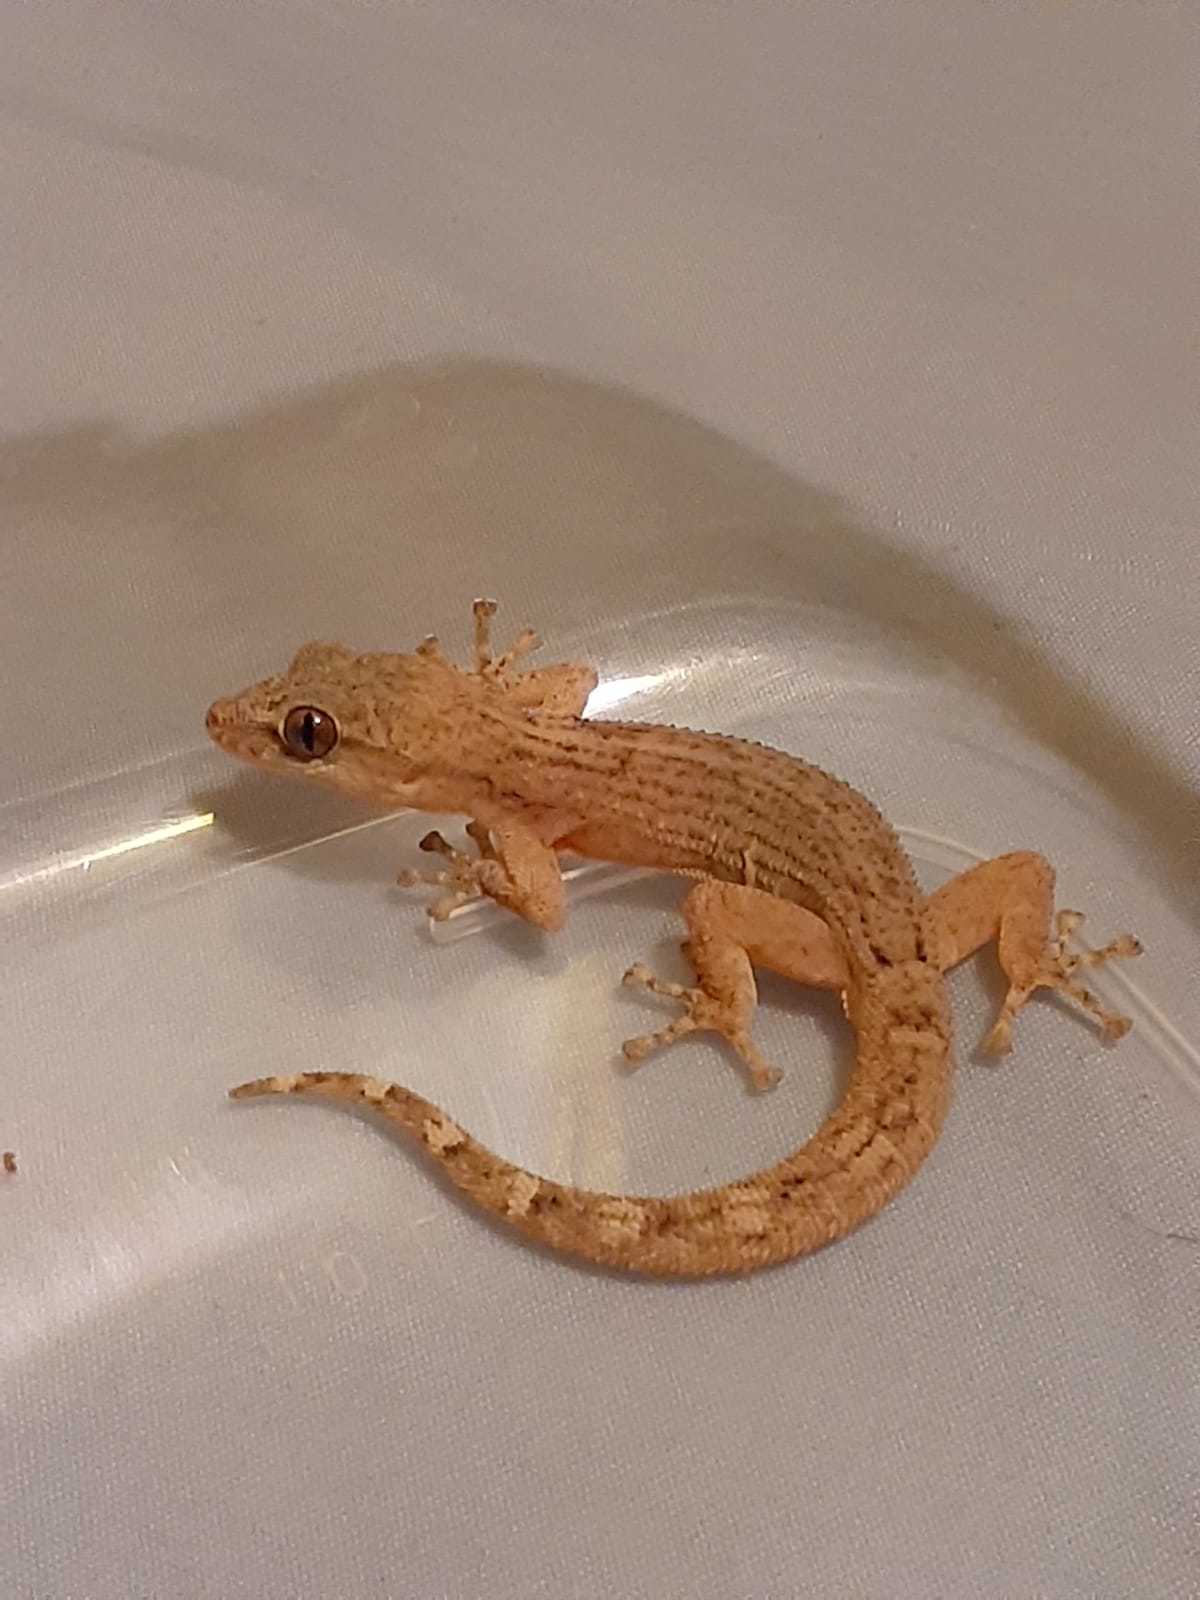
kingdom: Animalia
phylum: Chordata
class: Squamata
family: Phyllodactylidae
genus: Phyllodactylus
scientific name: Phyllodactylus reissii
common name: Peters' leaf-toed gecko
